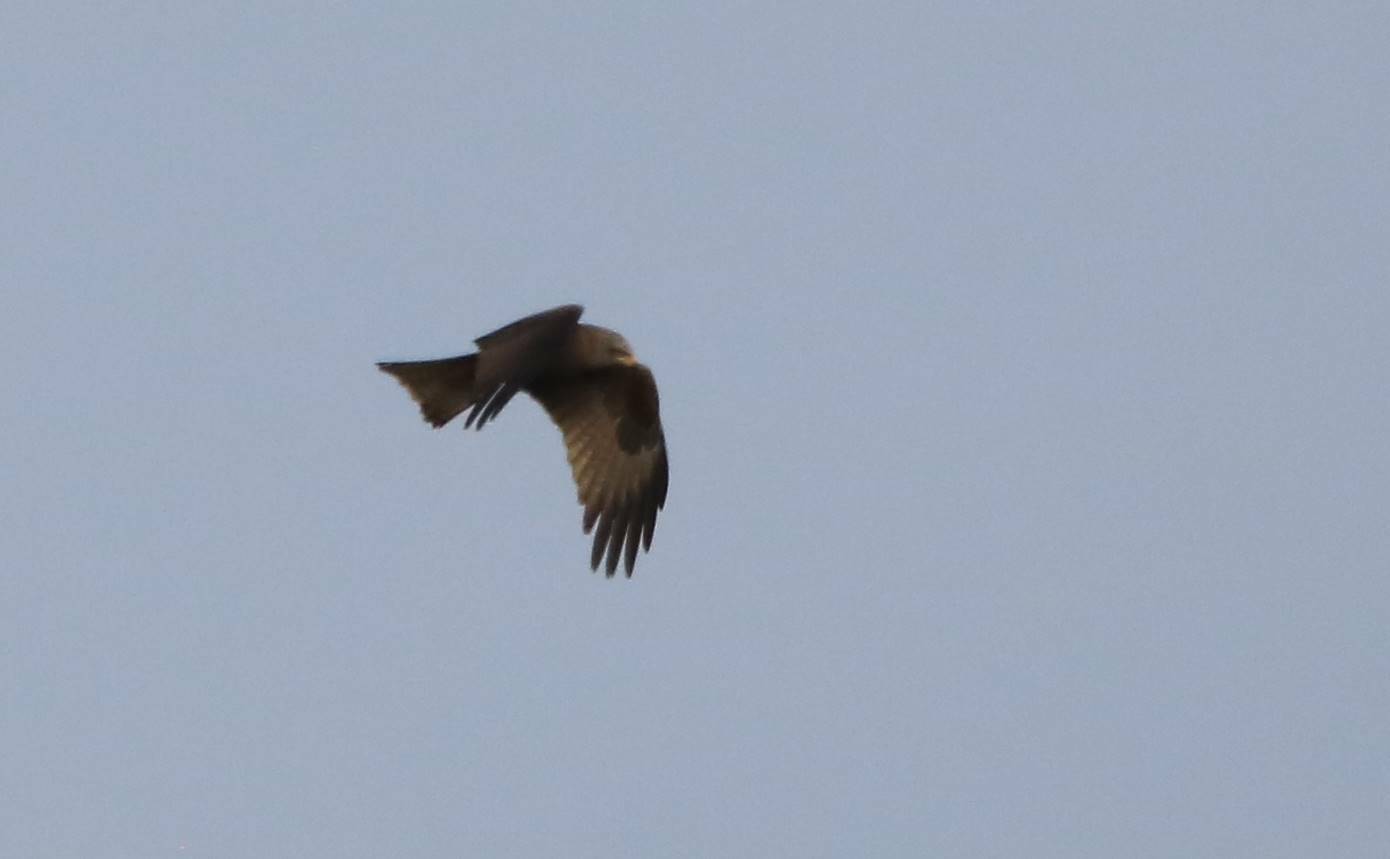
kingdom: Animalia
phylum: Chordata
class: Aves
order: Accipitriformes
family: Accipitridae
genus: Milvus
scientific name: Milvus migrans
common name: Black kite
